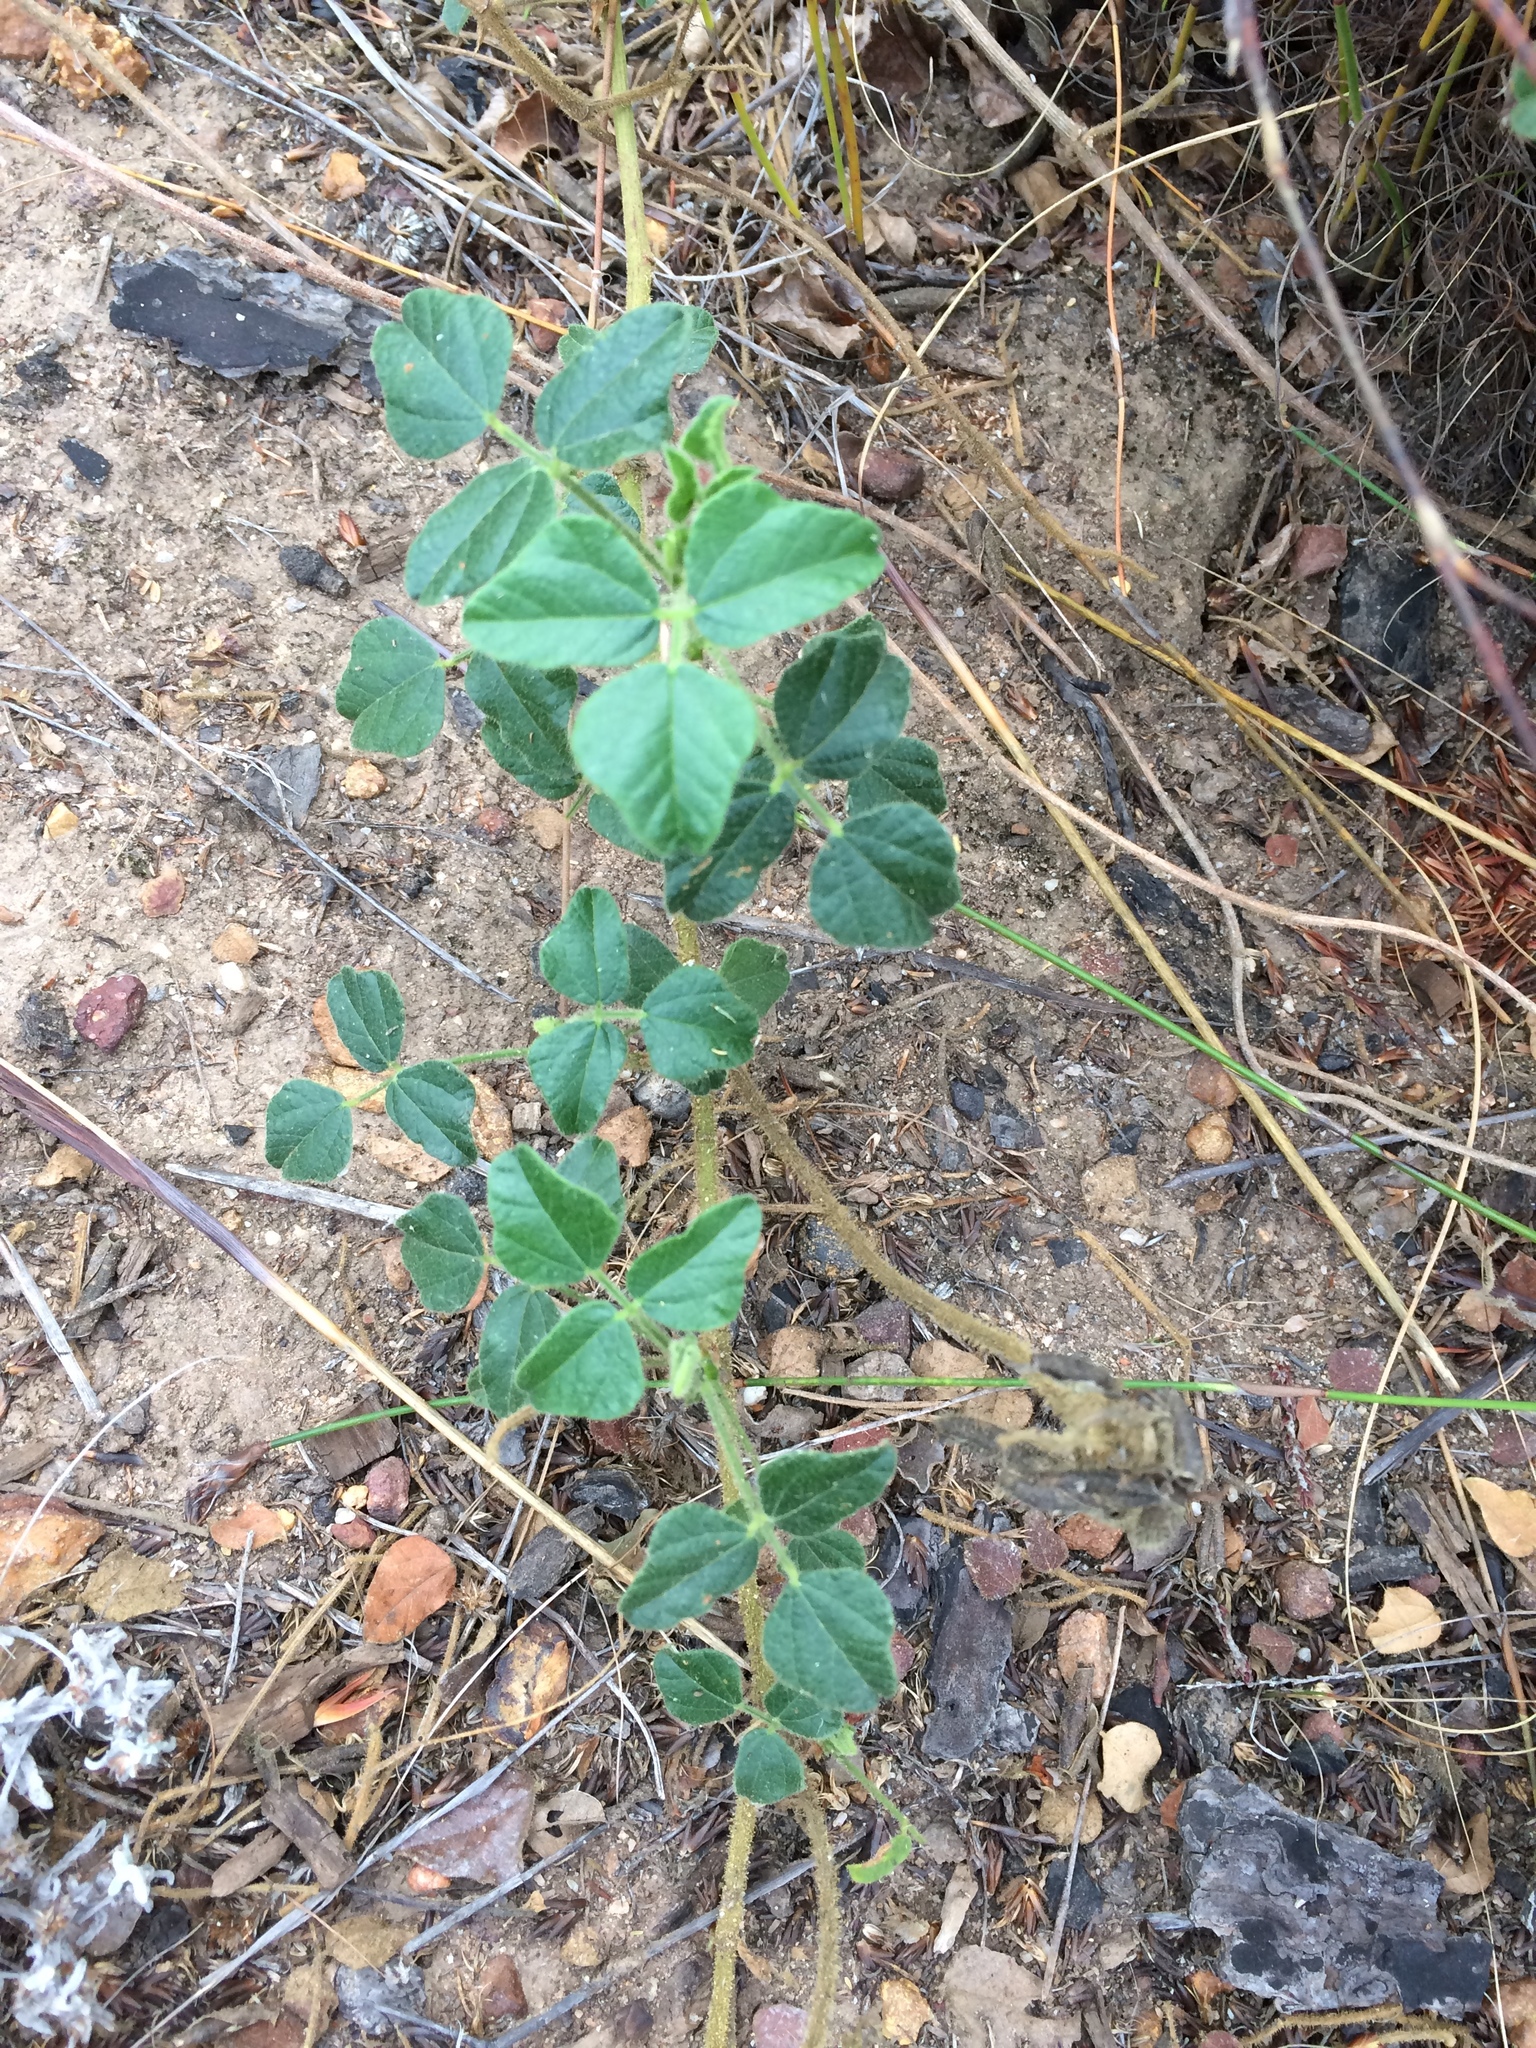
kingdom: Plantae
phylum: Tracheophyta
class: Magnoliopsida
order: Fabales
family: Fabaceae
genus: Bolusafra
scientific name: Bolusafra bituminosa
